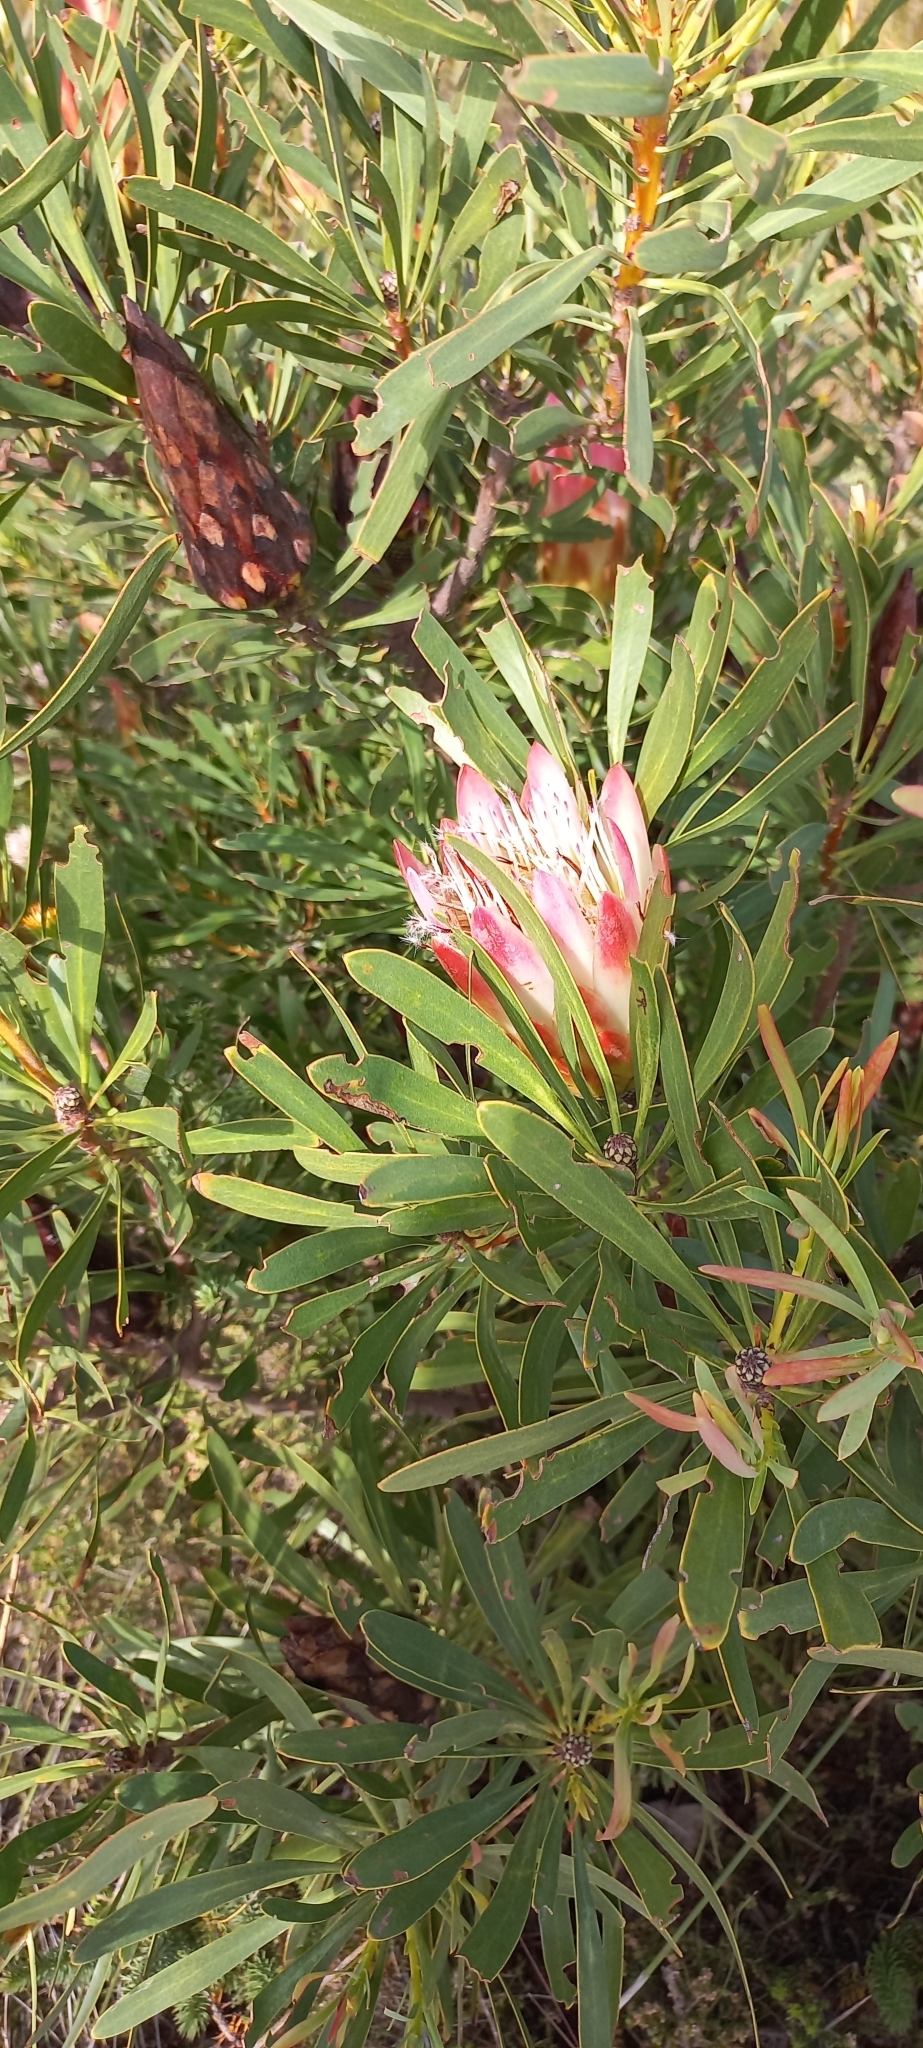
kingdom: Plantae
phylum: Tracheophyta
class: Magnoliopsida
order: Proteales
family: Proteaceae
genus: Protea
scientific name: Protea repens
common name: Sugarbush
